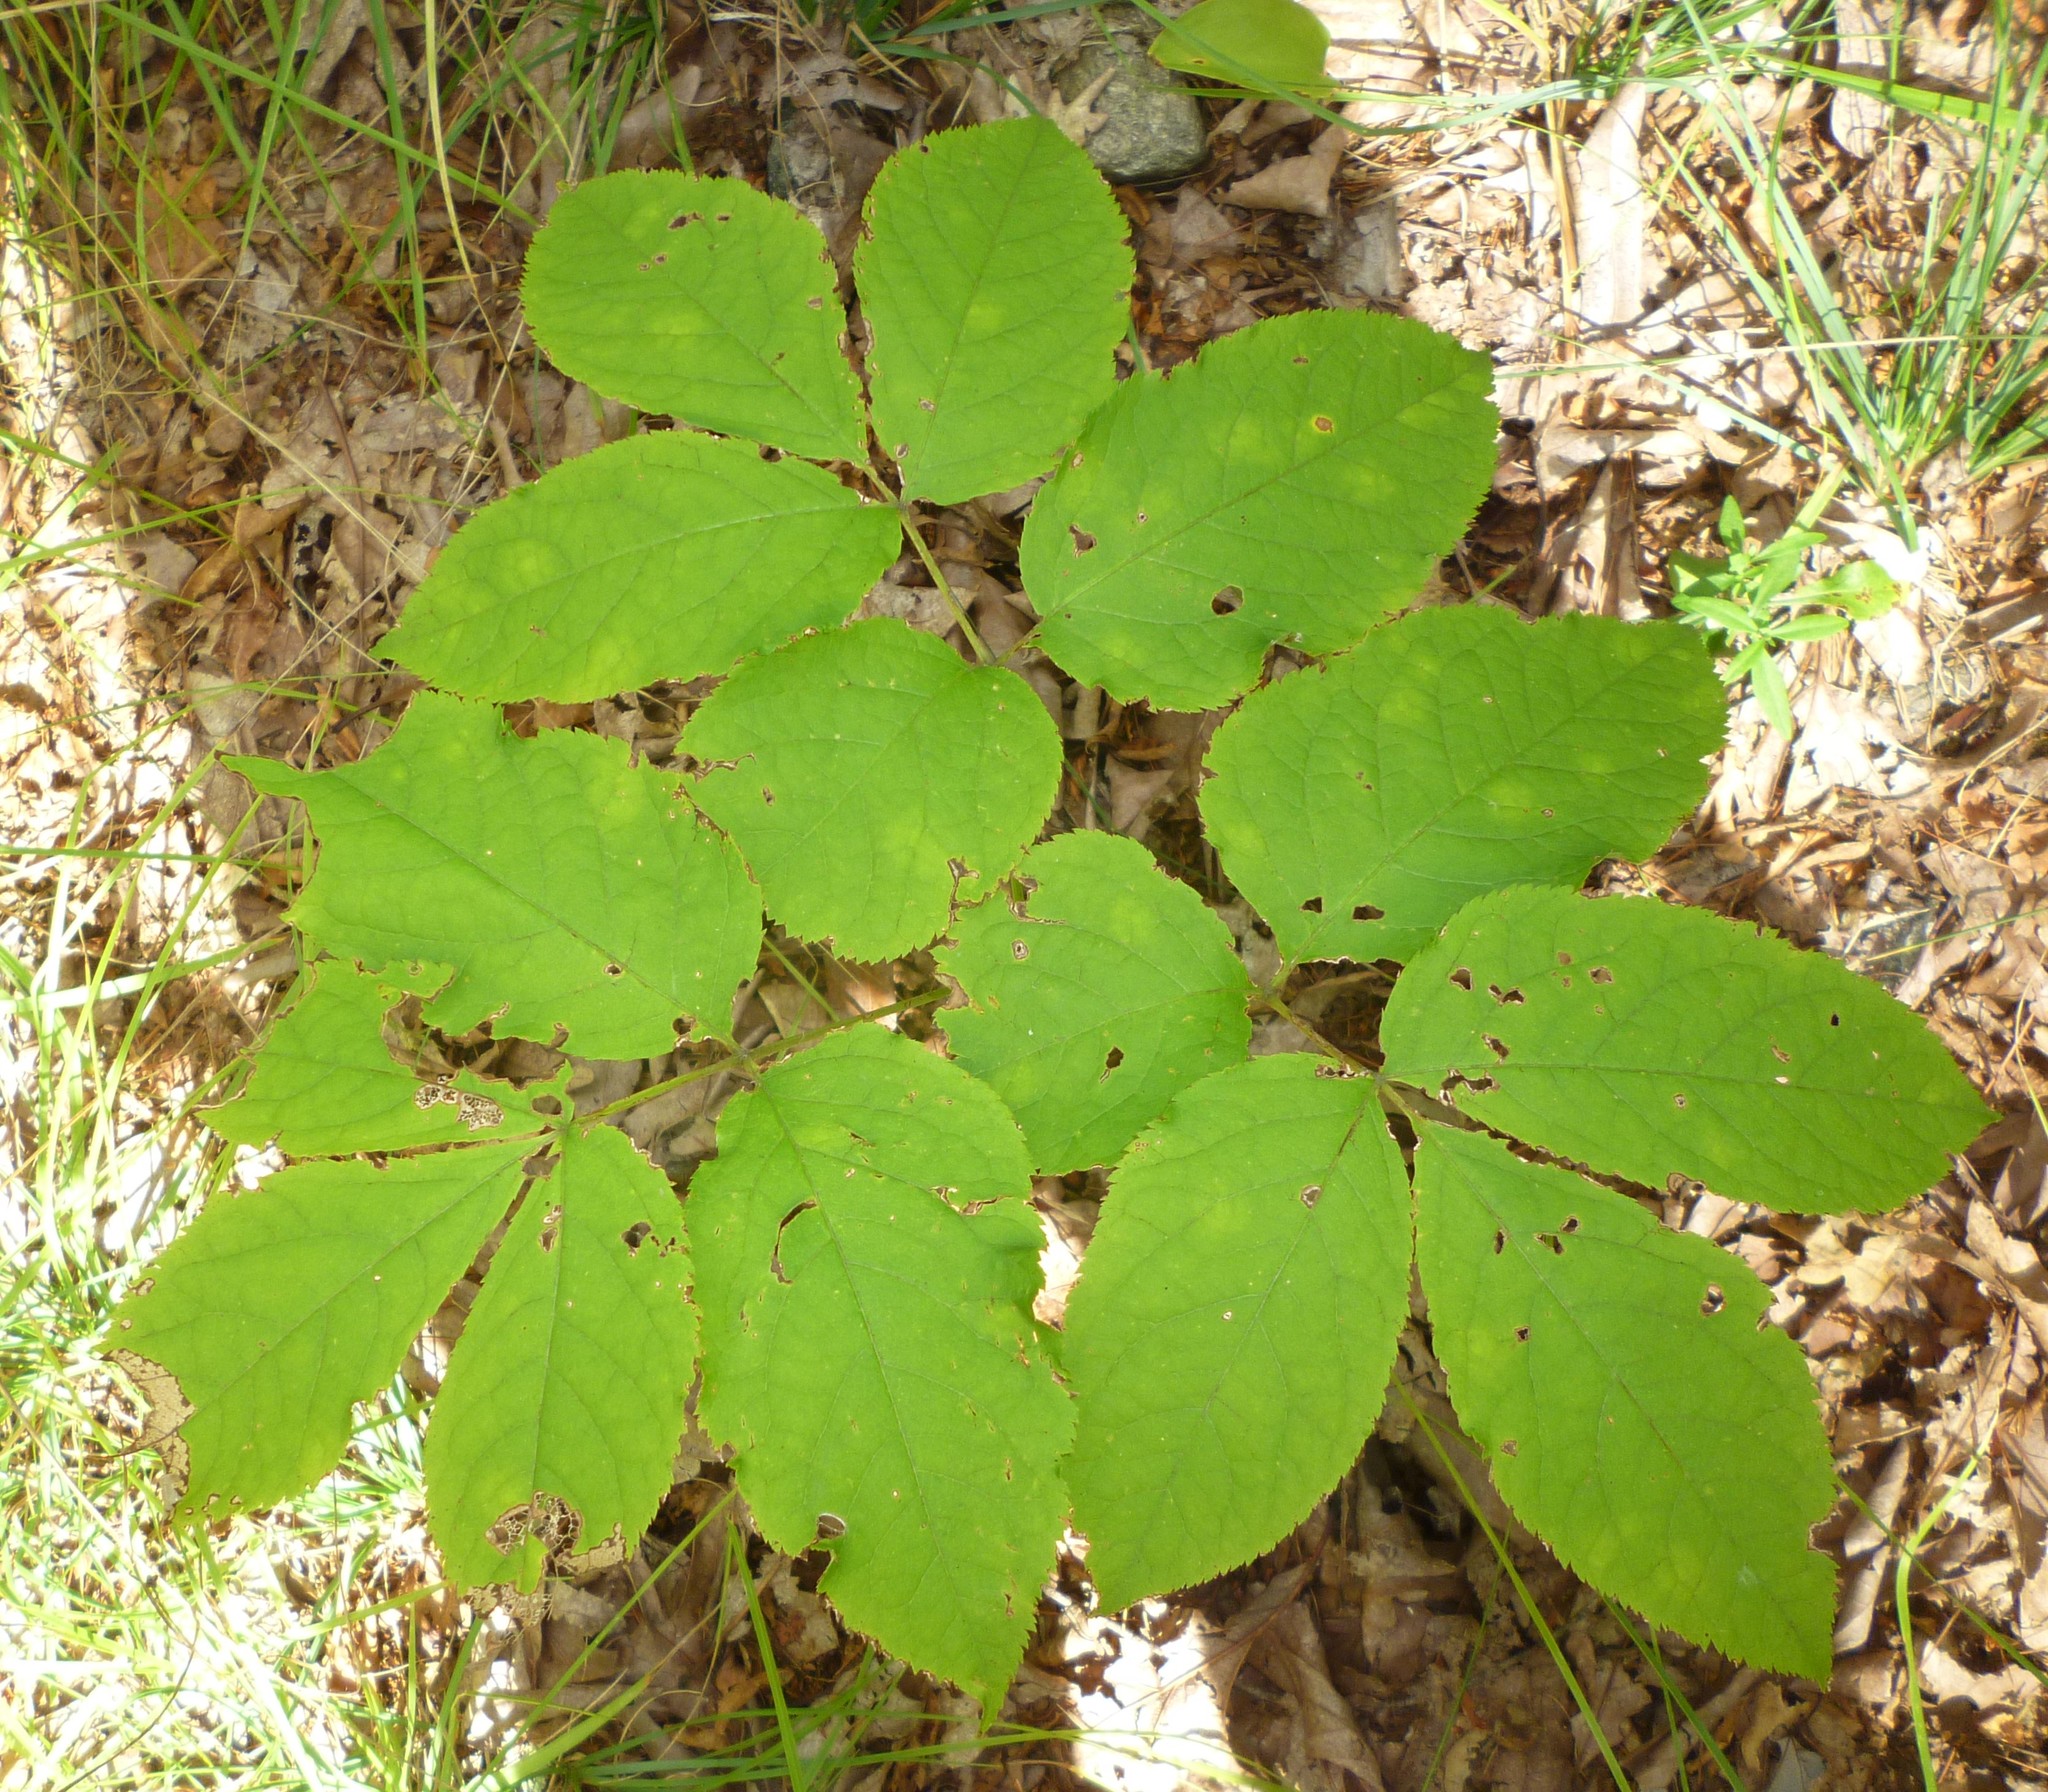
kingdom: Plantae
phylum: Tracheophyta
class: Magnoliopsida
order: Apiales
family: Araliaceae
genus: Aralia
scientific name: Aralia nudicaulis
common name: Wild sarsaparilla
